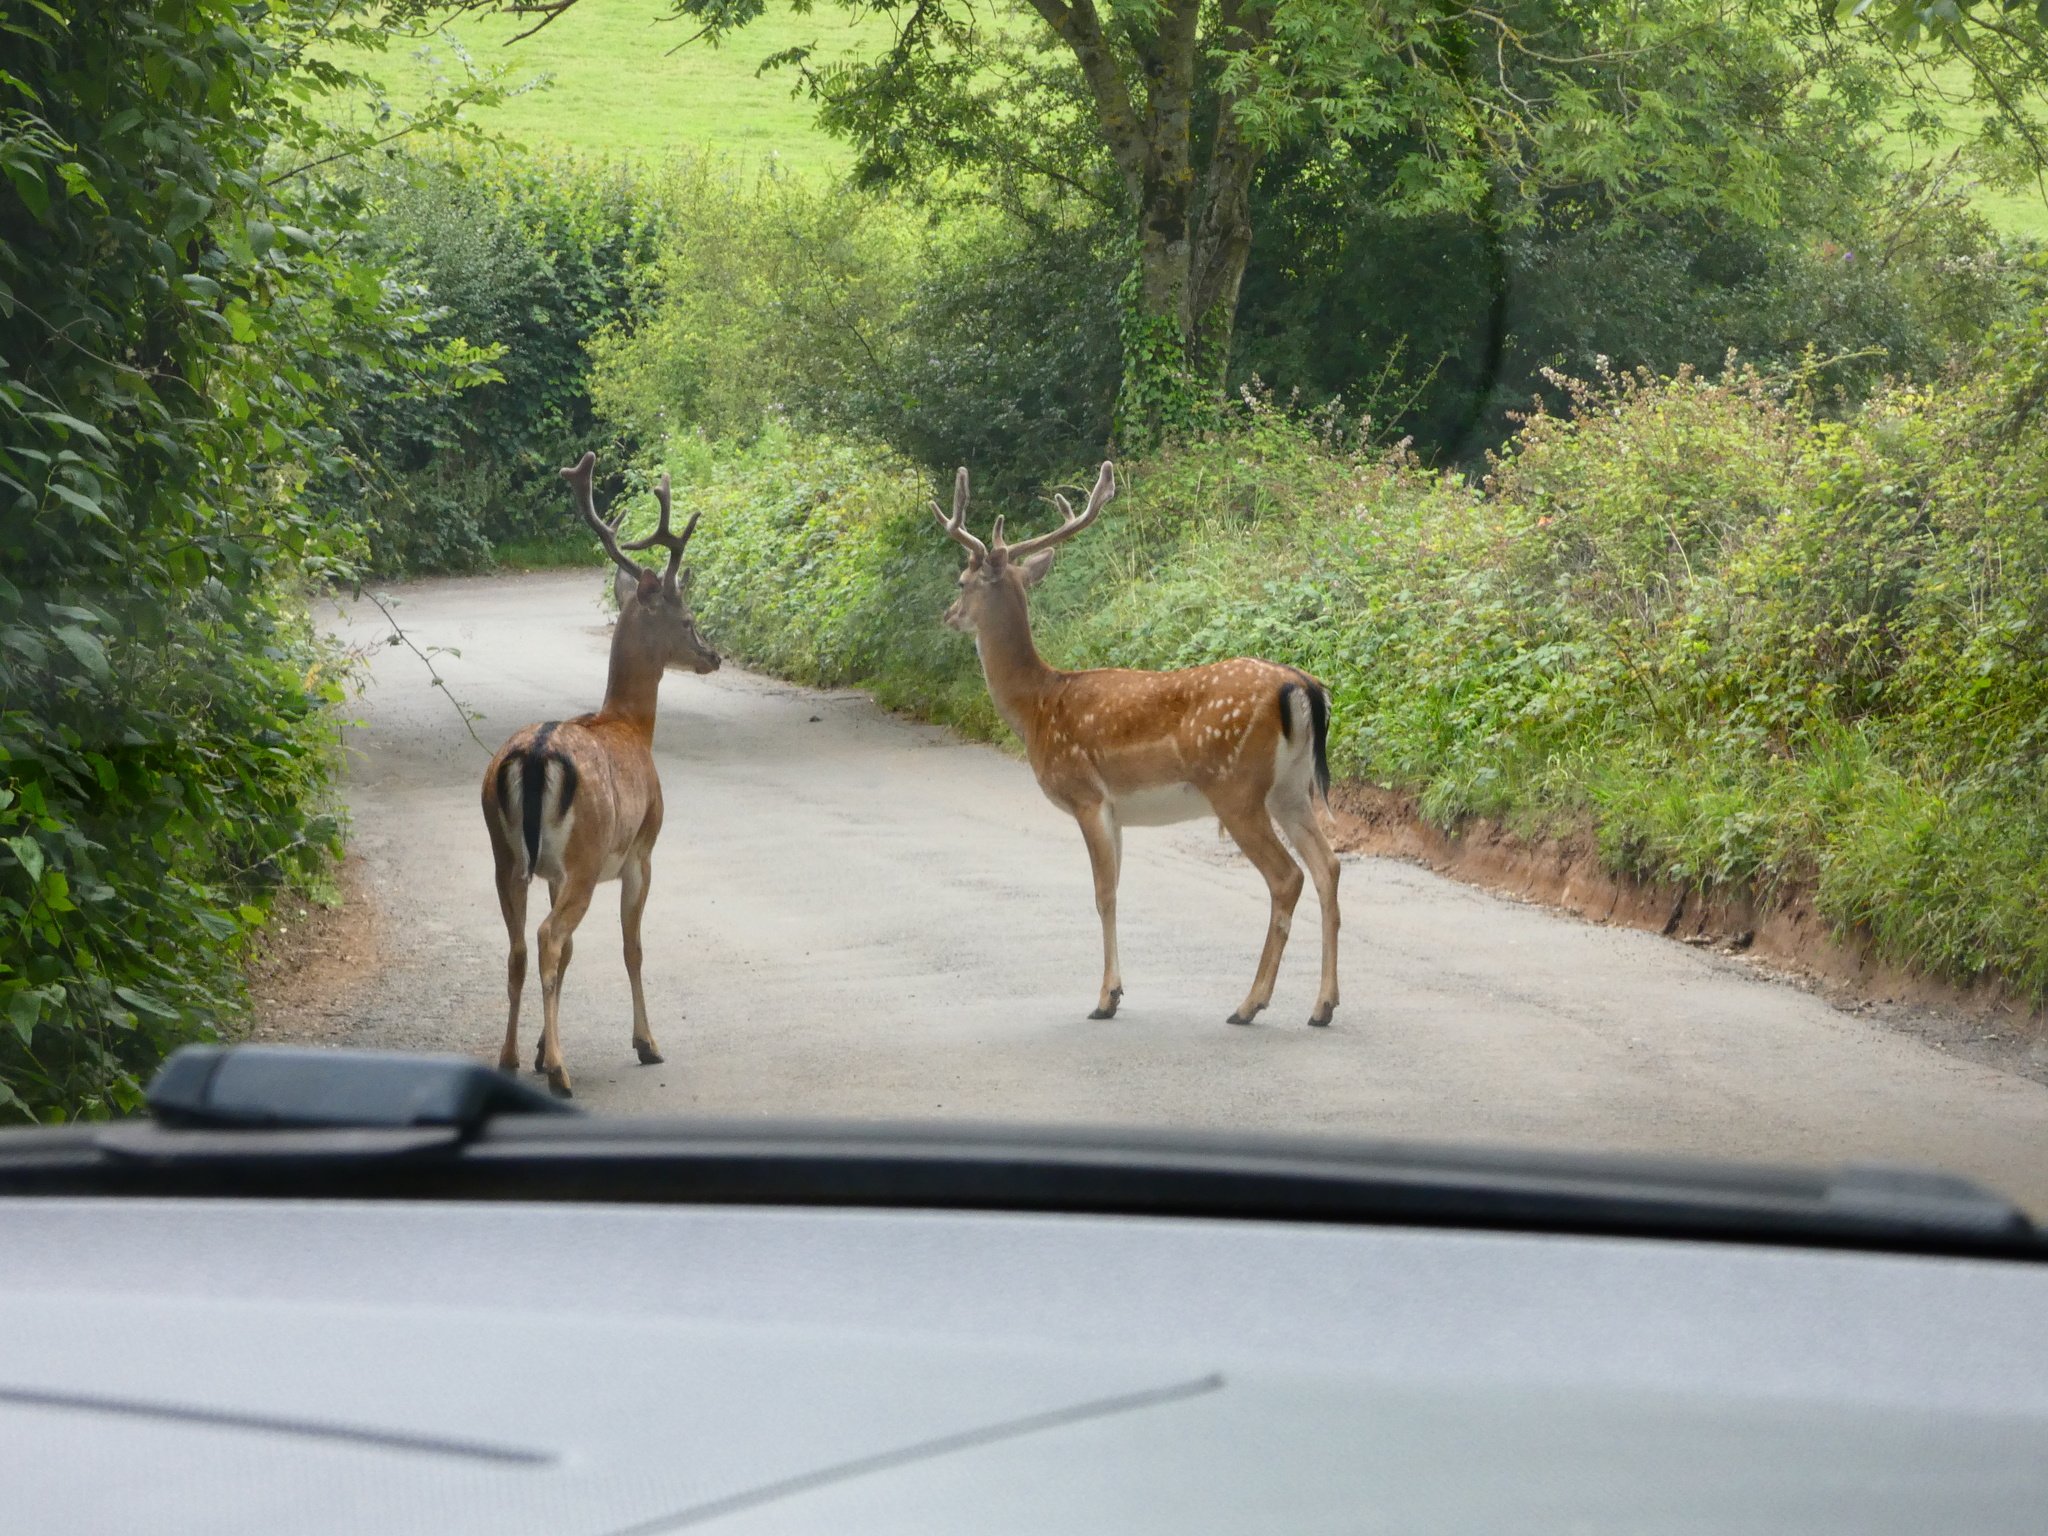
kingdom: Animalia
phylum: Chordata
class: Mammalia
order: Artiodactyla
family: Cervidae
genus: Dama
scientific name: Dama dama
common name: Fallow deer
